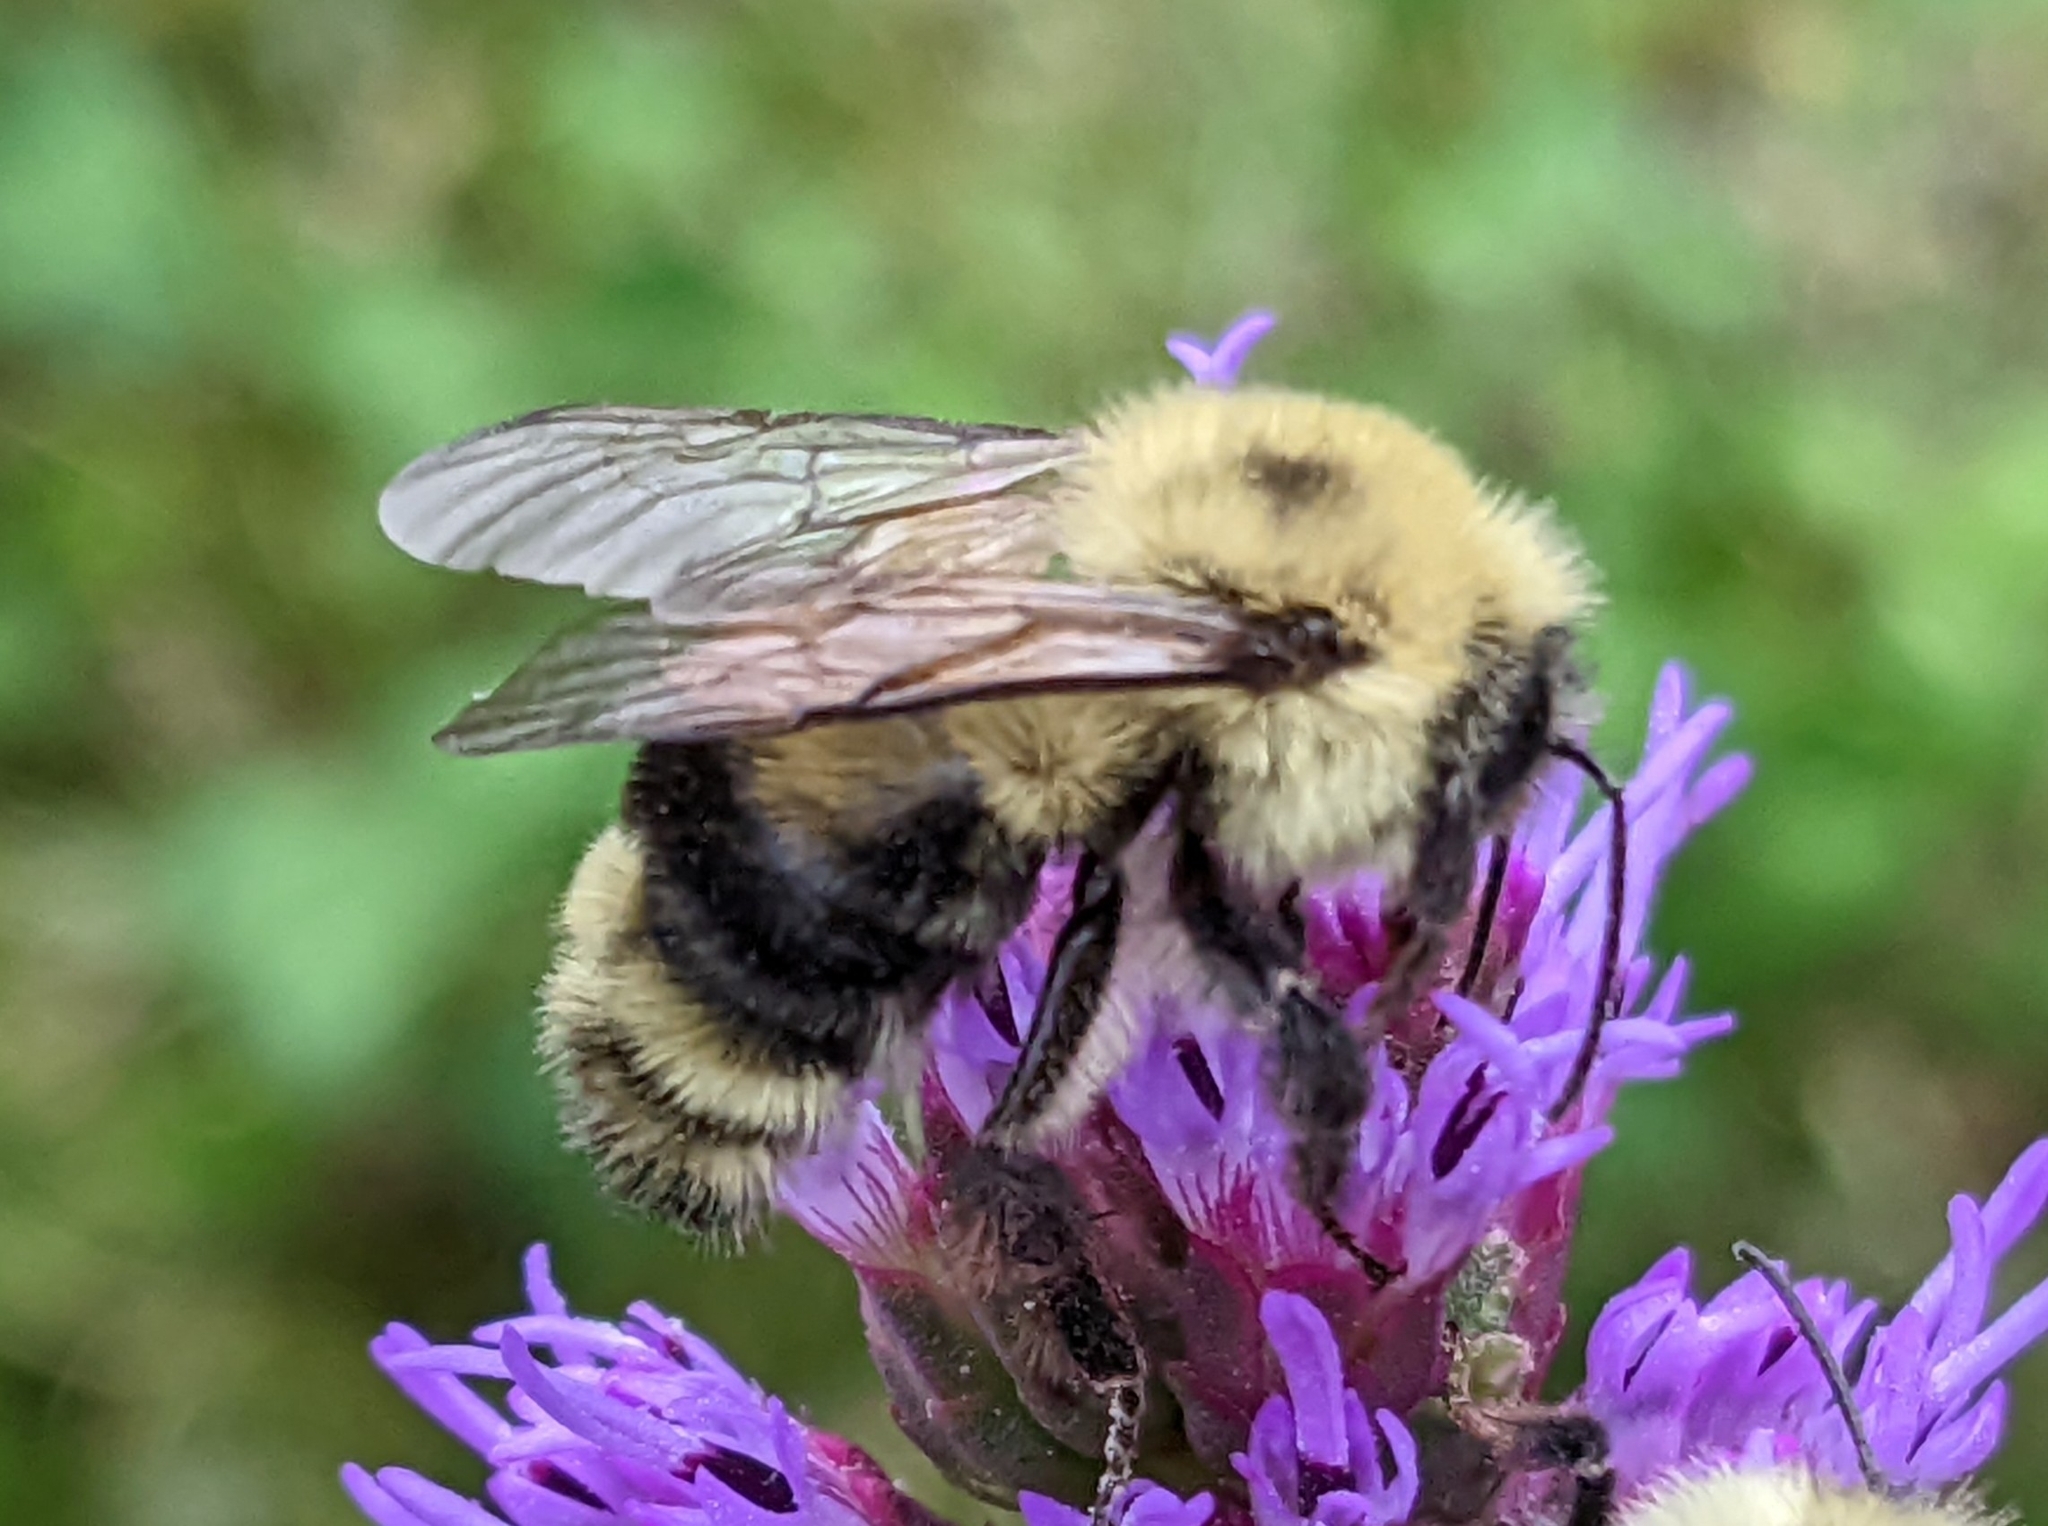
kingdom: Animalia
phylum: Arthropoda
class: Insecta
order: Hymenoptera
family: Apidae
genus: Bombus
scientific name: Bombus bimaculatus
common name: Two-spotted bumble bee
